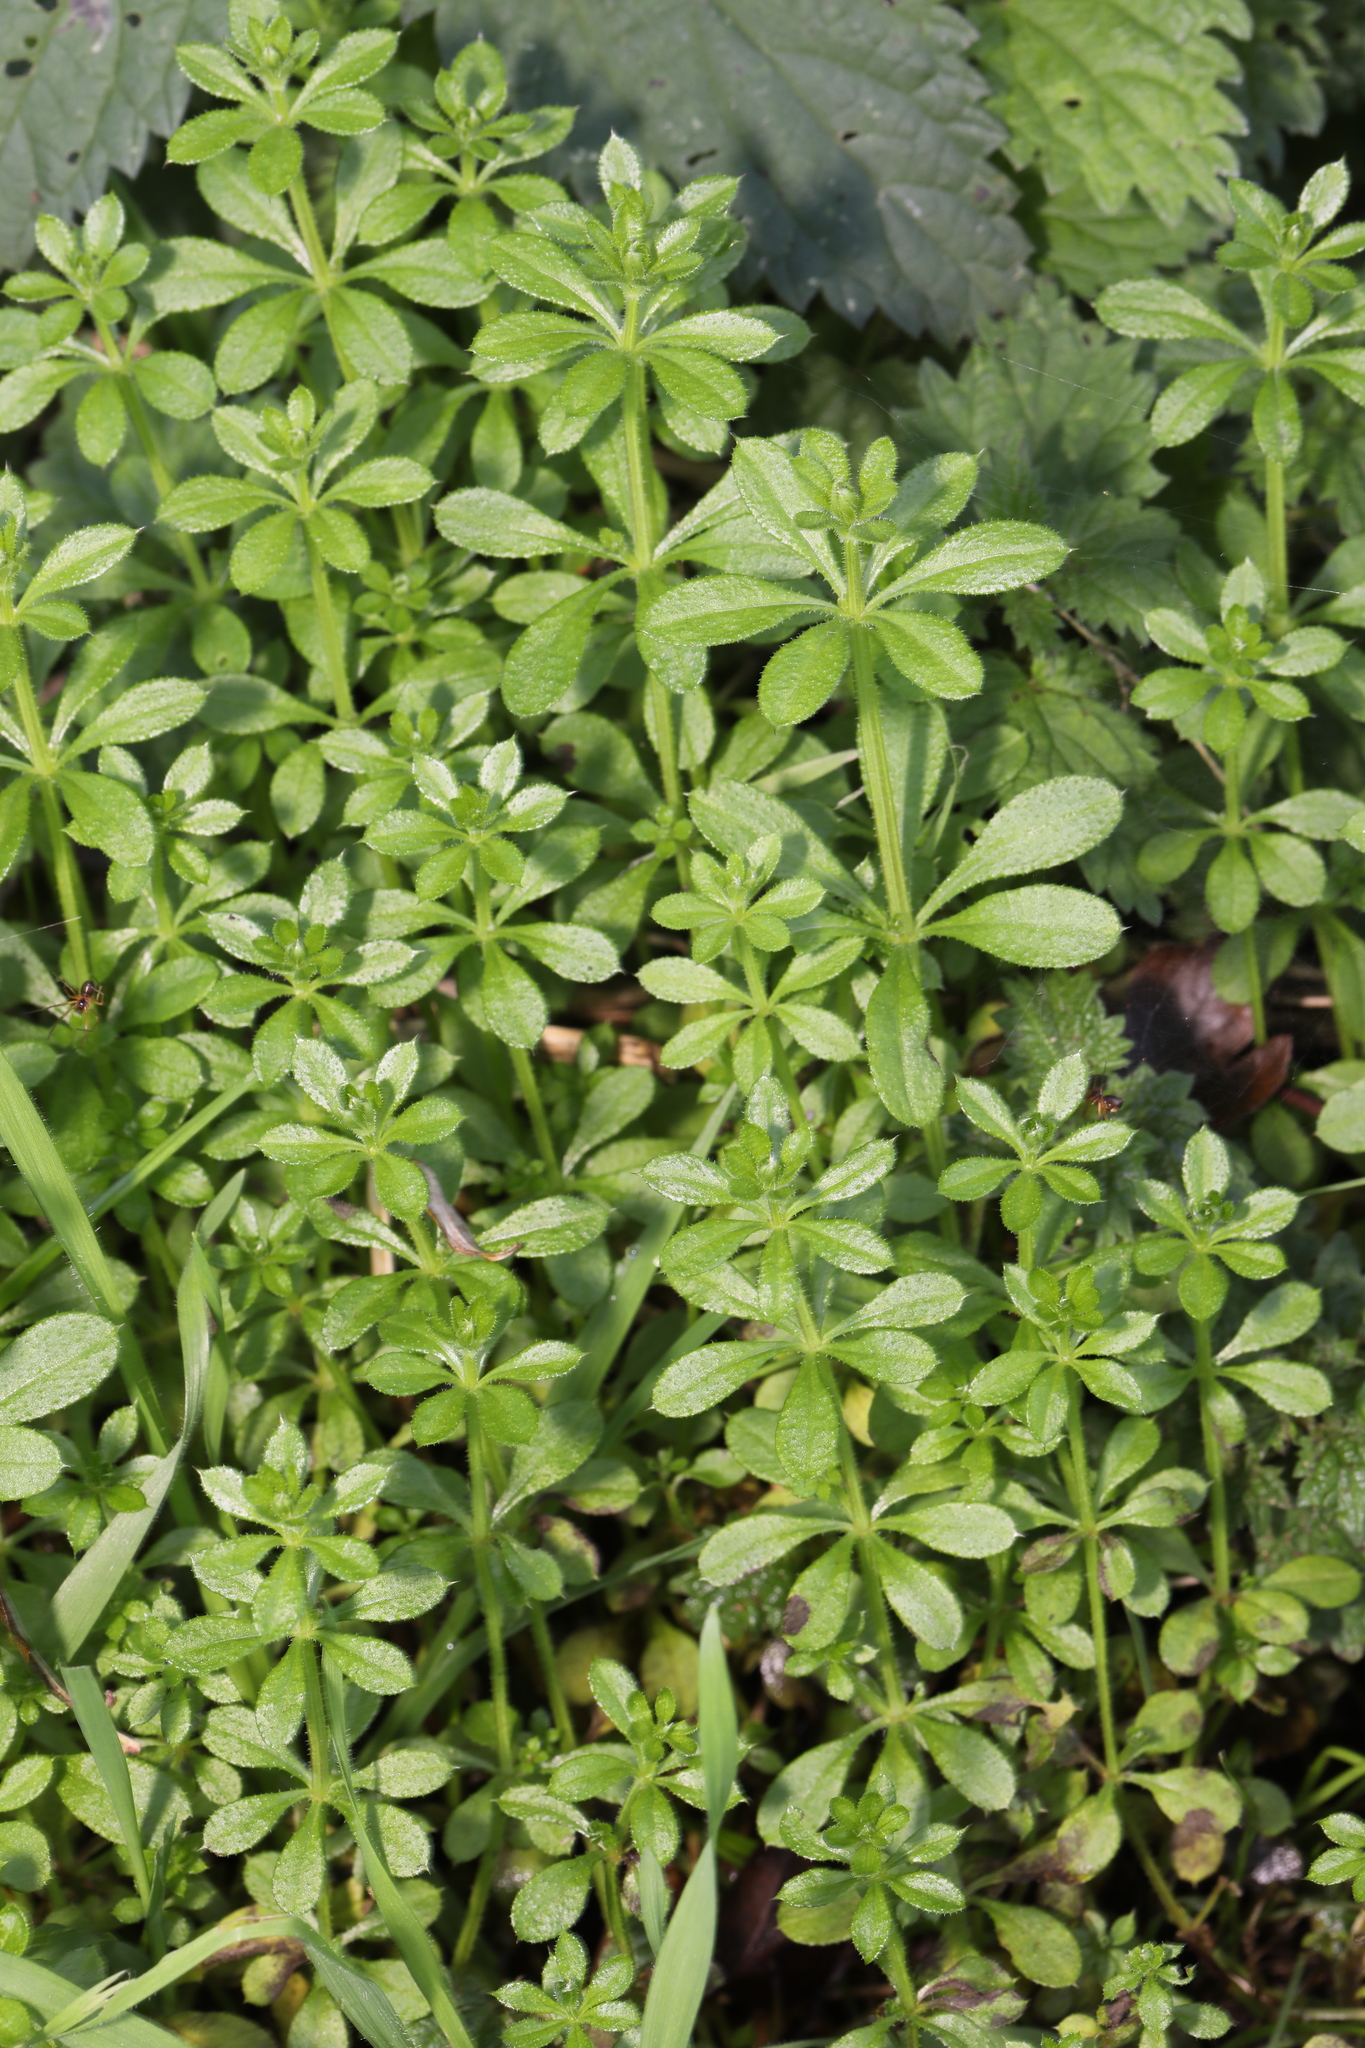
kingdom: Plantae
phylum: Tracheophyta
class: Magnoliopsida
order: Gentianales
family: Rubiaceae
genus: Galium
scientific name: Galium aparine
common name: Cleavers
